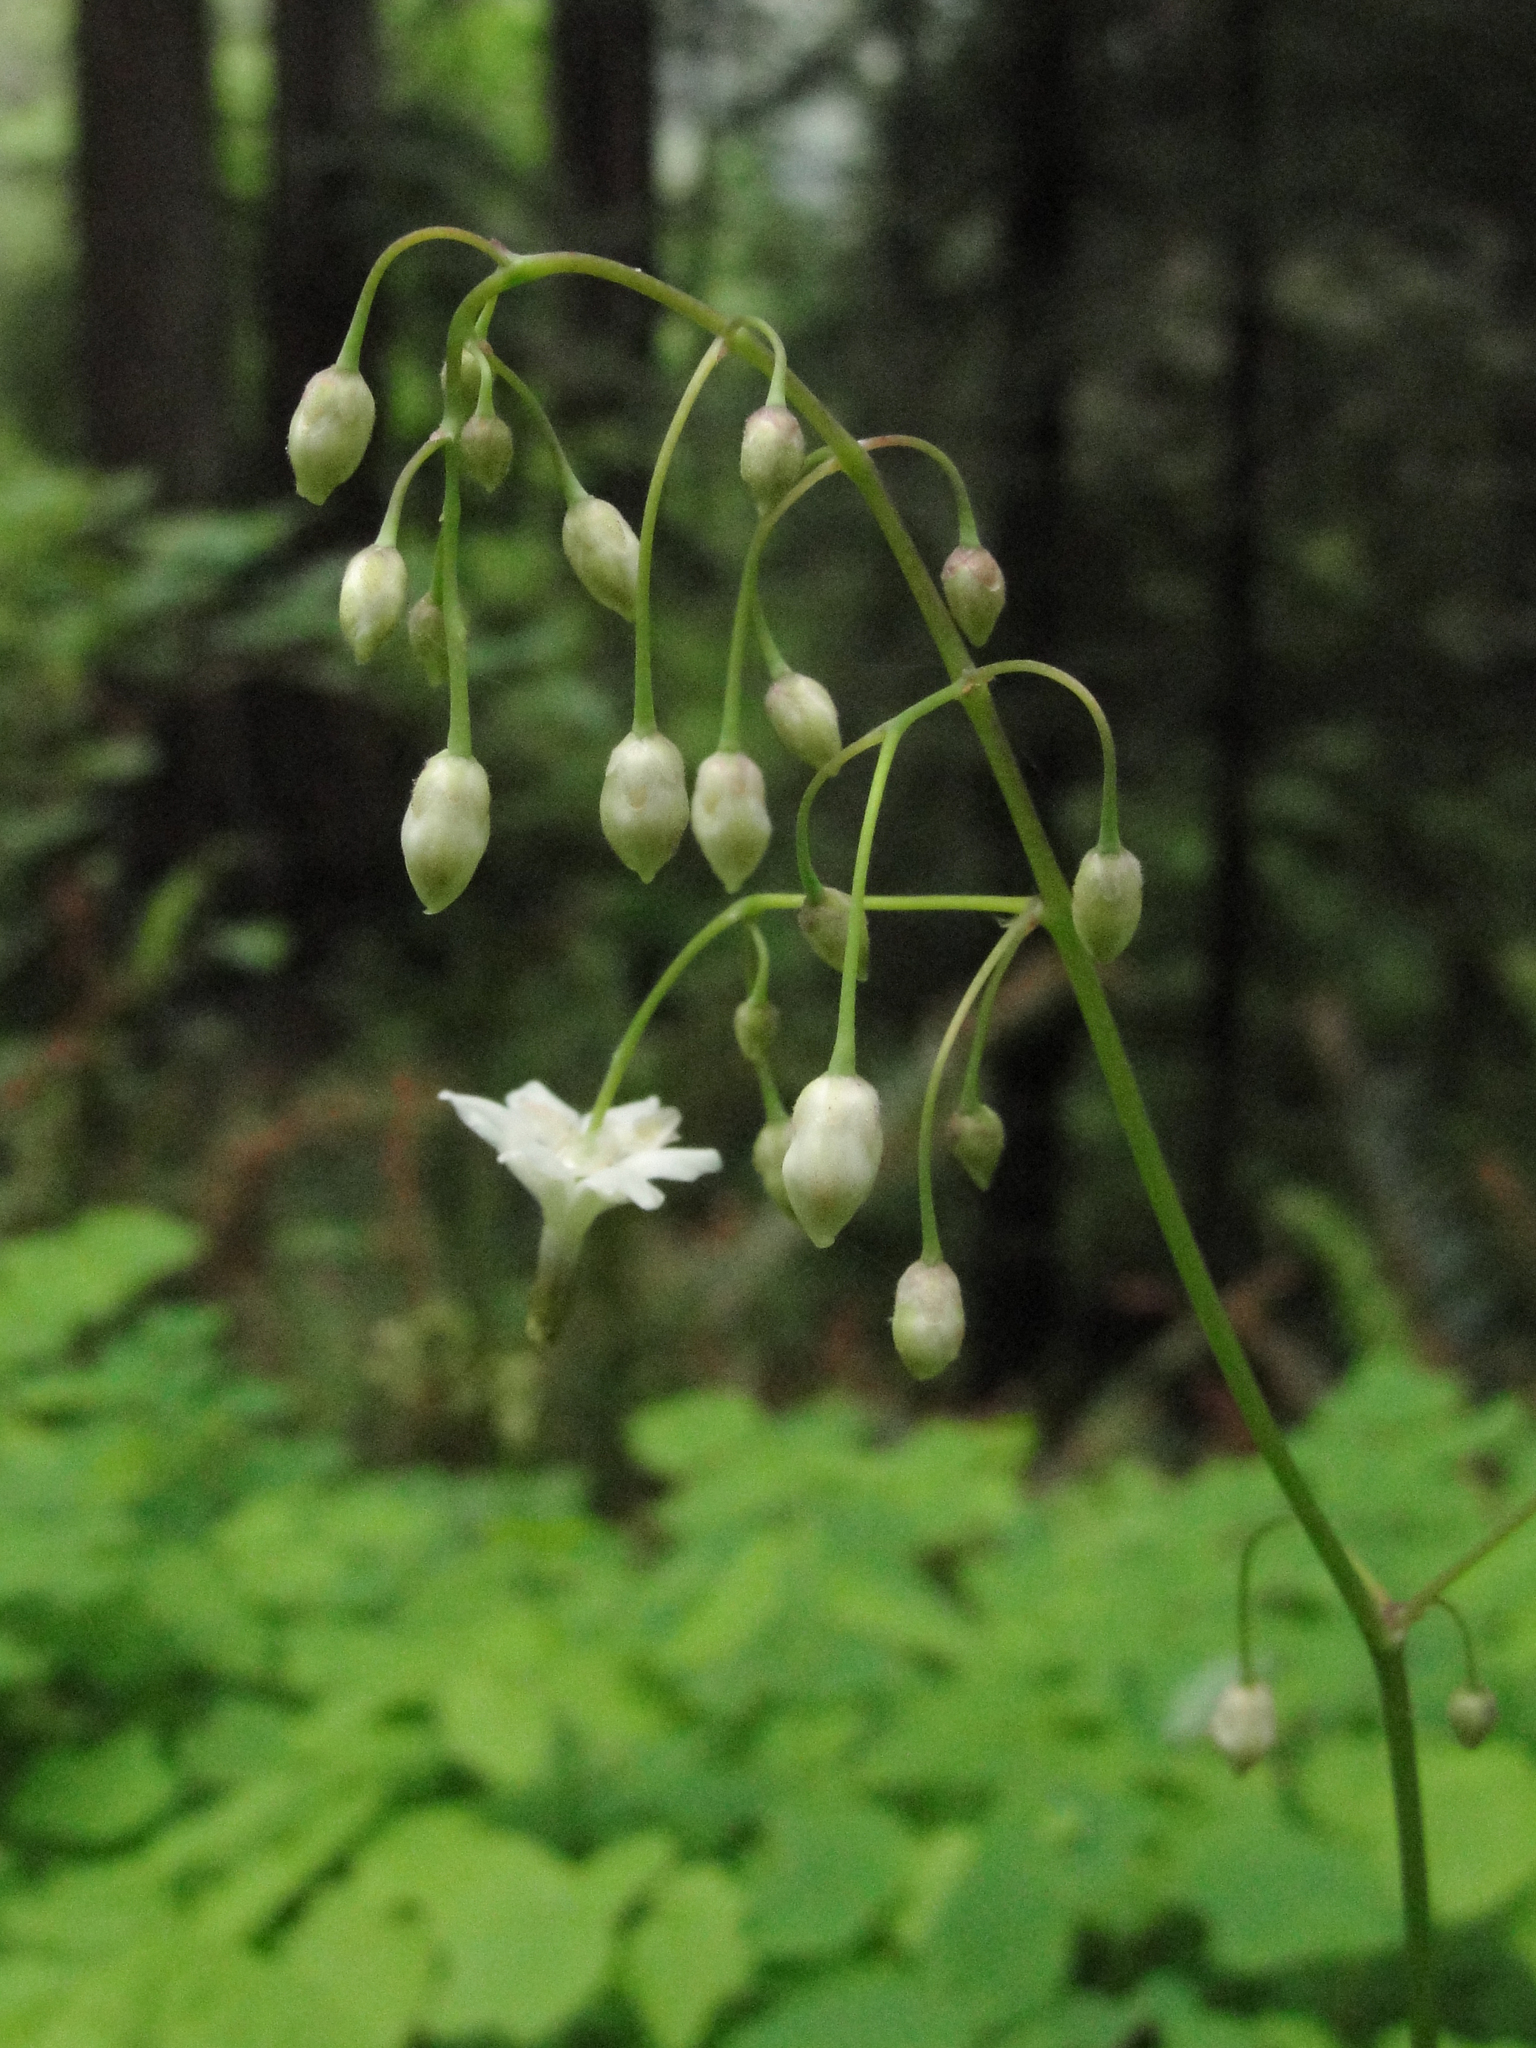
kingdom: Plantae
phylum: Tracheophyta
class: Magnoliopsida
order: Ranunculales
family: Berberidaceae
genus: Vancouveria
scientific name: Vancouveria hexandra
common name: Northern inside-out-flower
